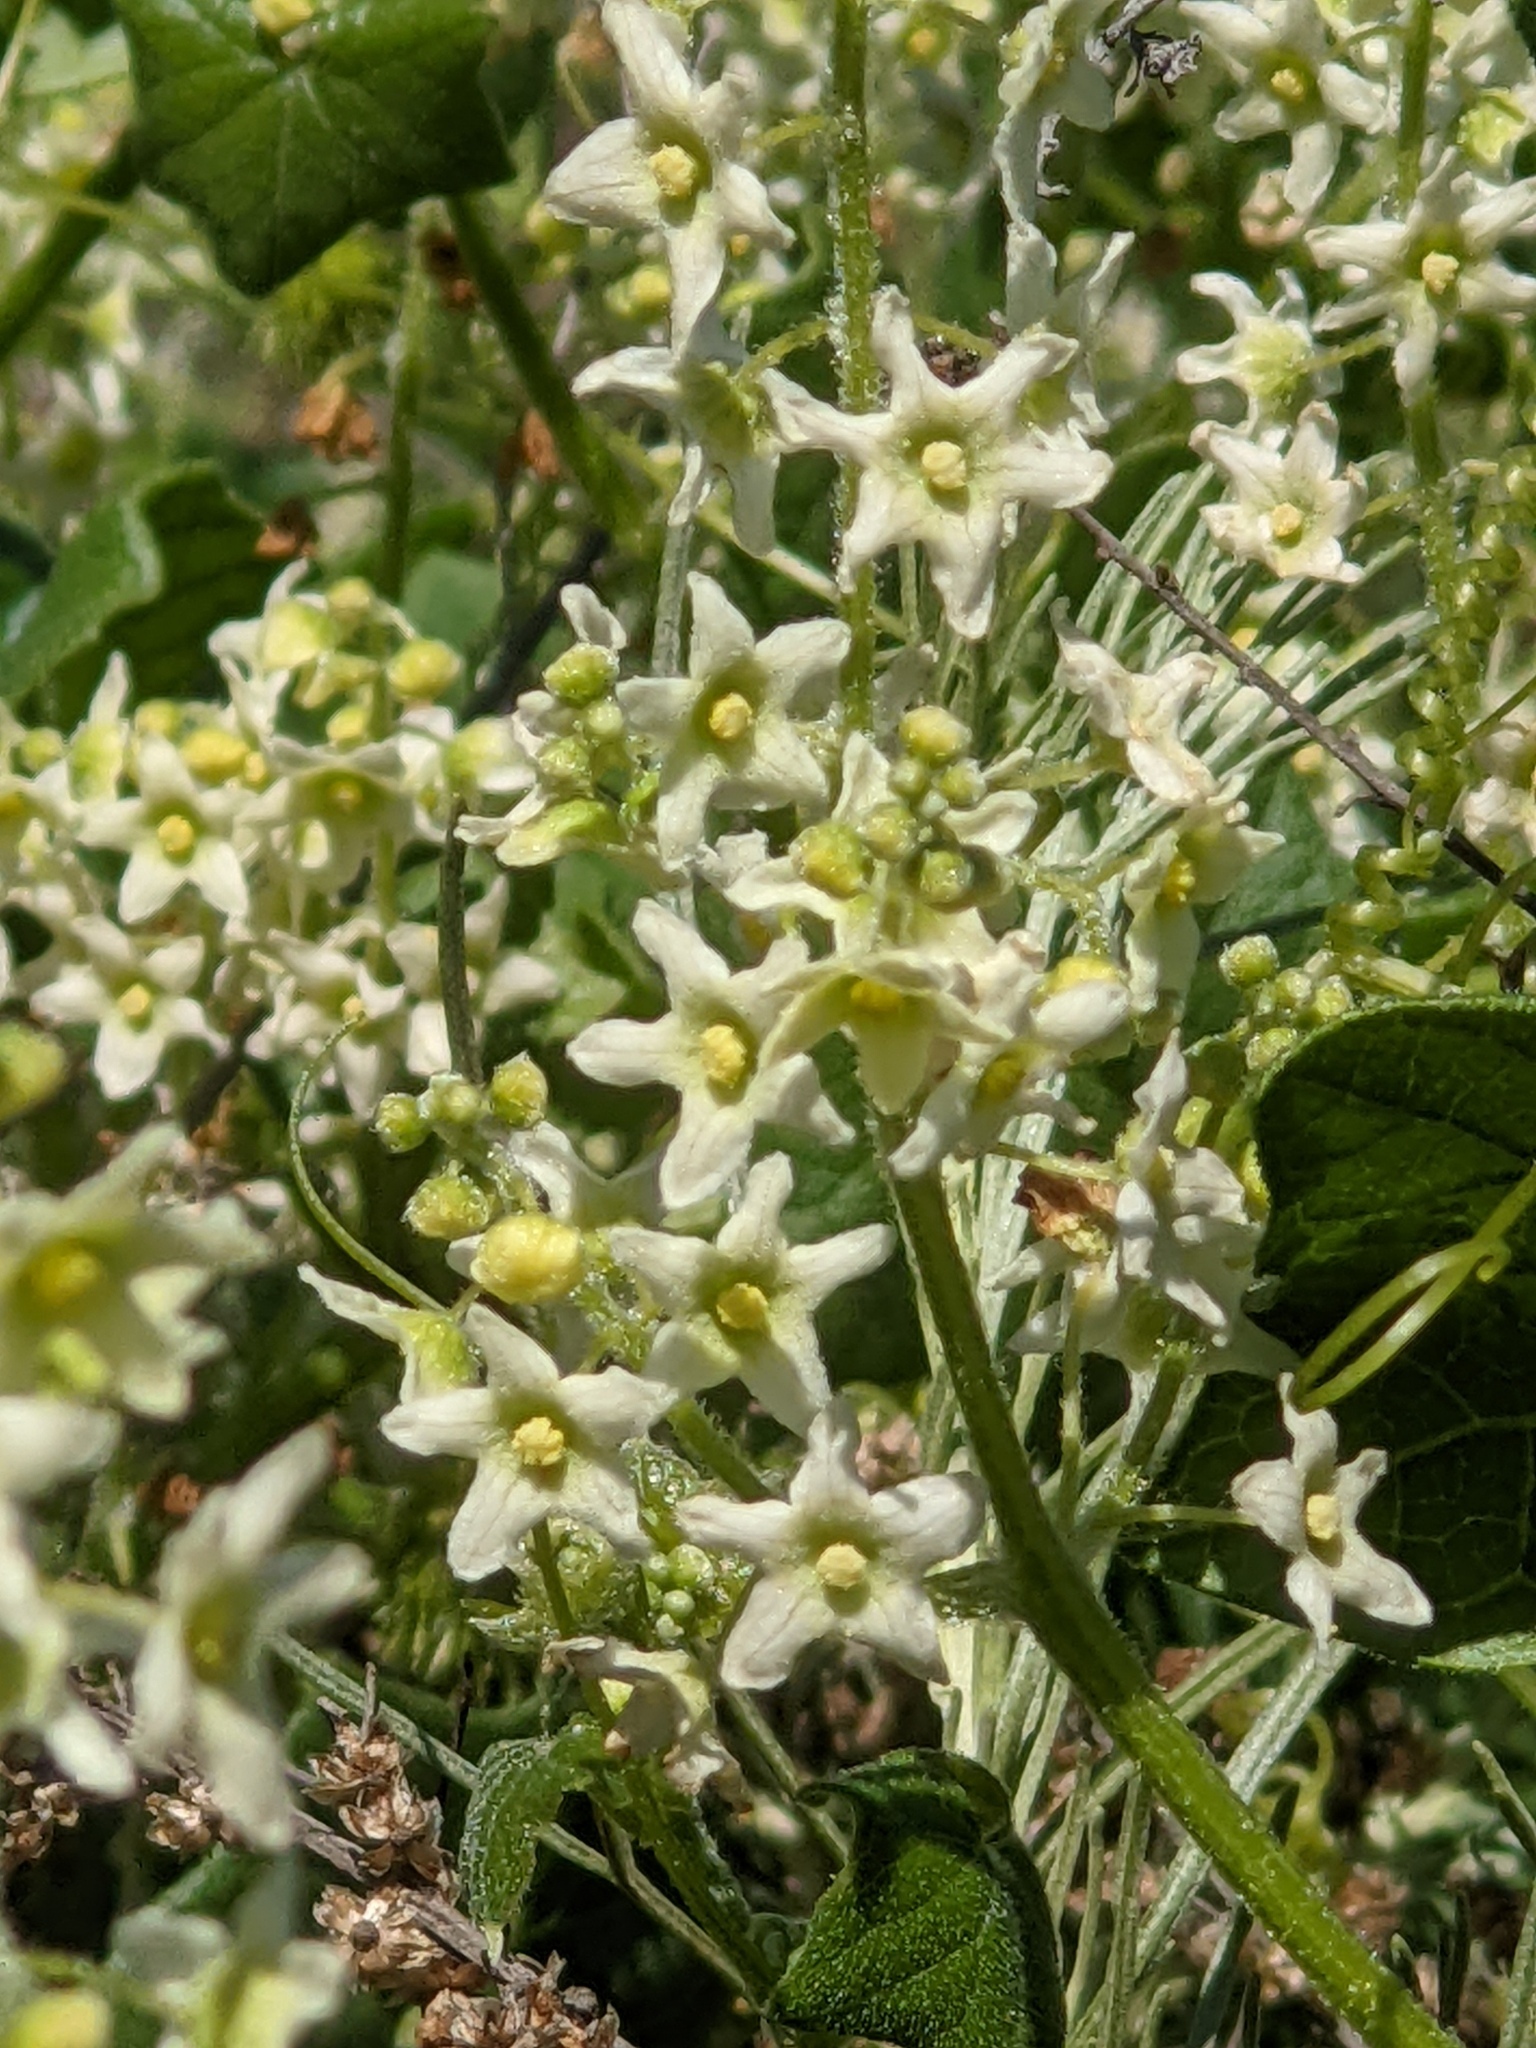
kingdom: Plantae
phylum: Tracheophyta
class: Magnoliopsida
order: Cucurbitales
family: Cucurbitaceae
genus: Marah
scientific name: Marah fabacea
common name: California manroot
